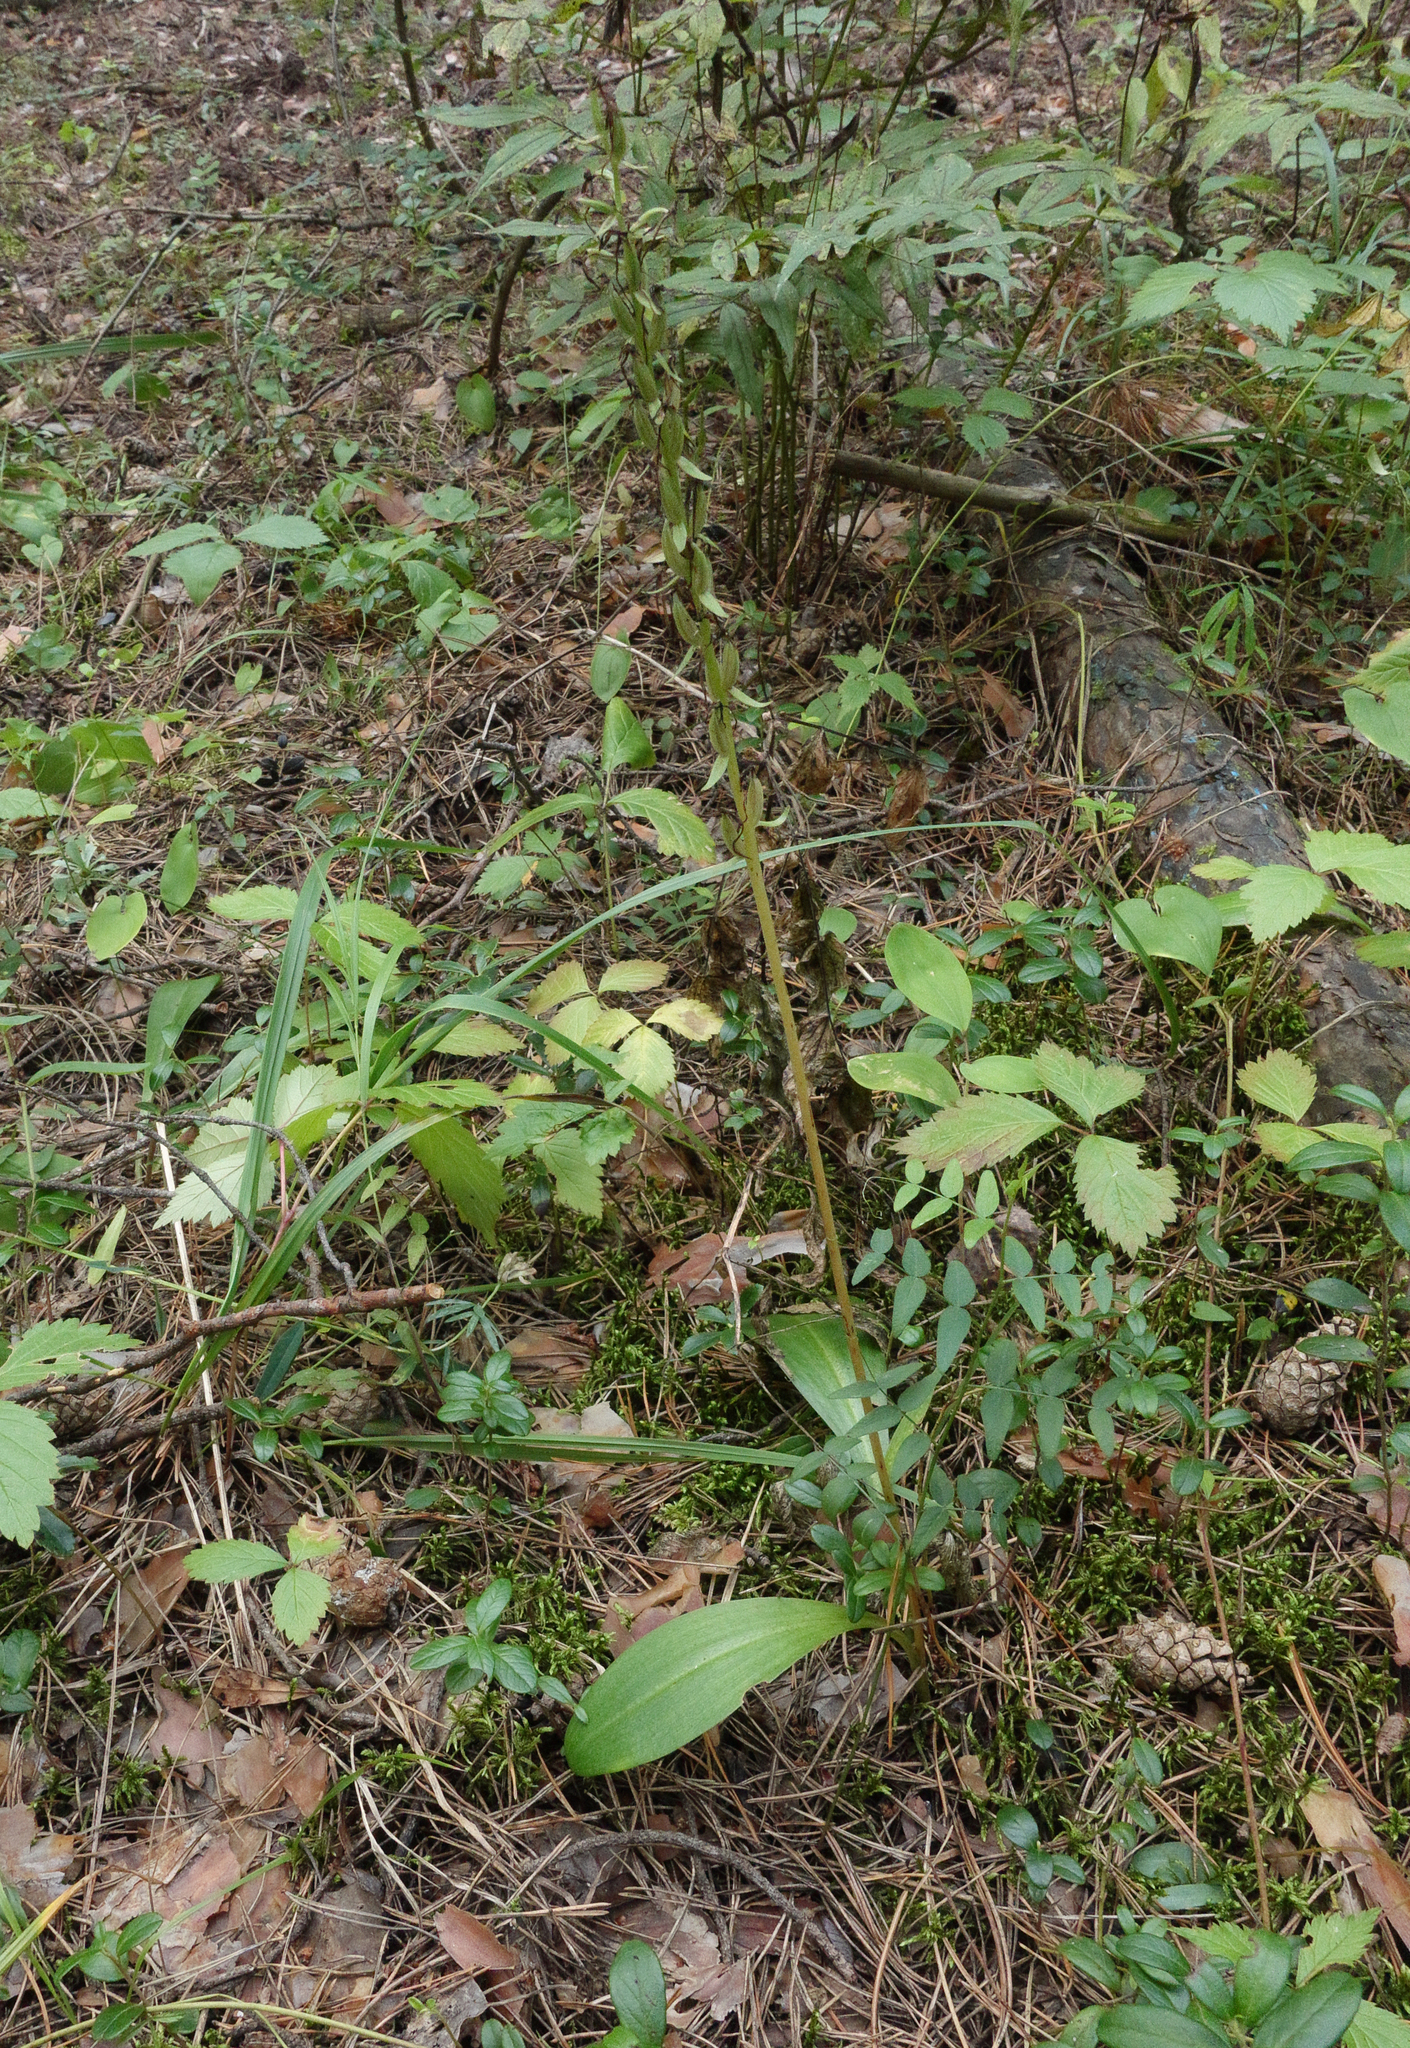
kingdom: Plantae
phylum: Tracheophyta
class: Liliopsida
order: Asparagales
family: Orchidaceae
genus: Platanthera
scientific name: Platanthera bifolia
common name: Lesser butterfly-orchid
